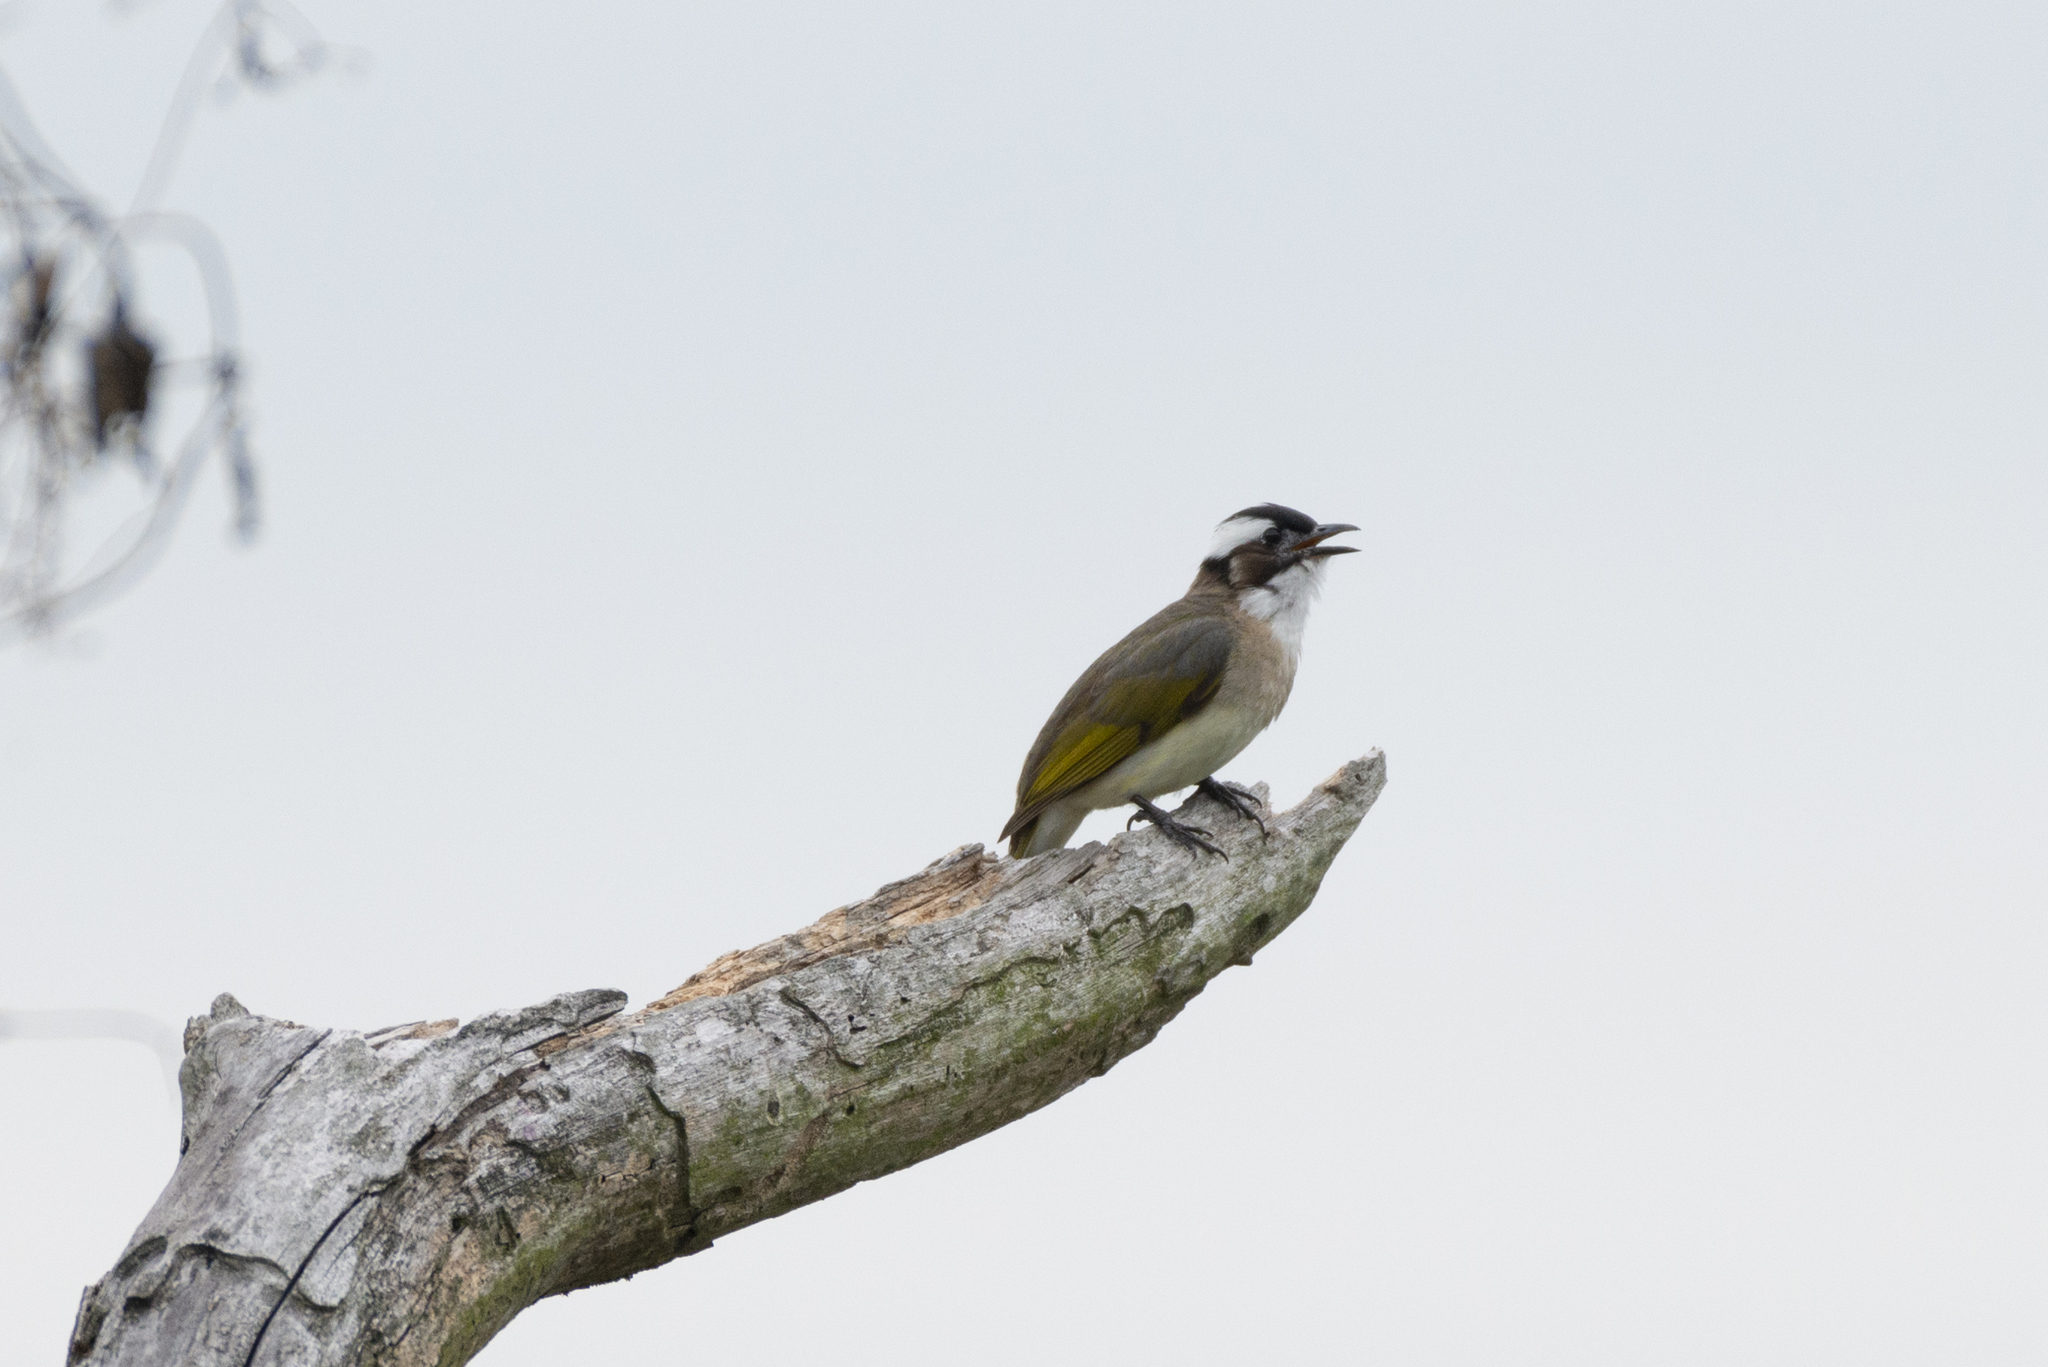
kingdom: Animalia
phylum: Chordata
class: Aves
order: Passeriformes
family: Pycnonotidae
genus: Pycnonotus
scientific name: Pycnonotus sinensis
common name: Light-vented bulbul
